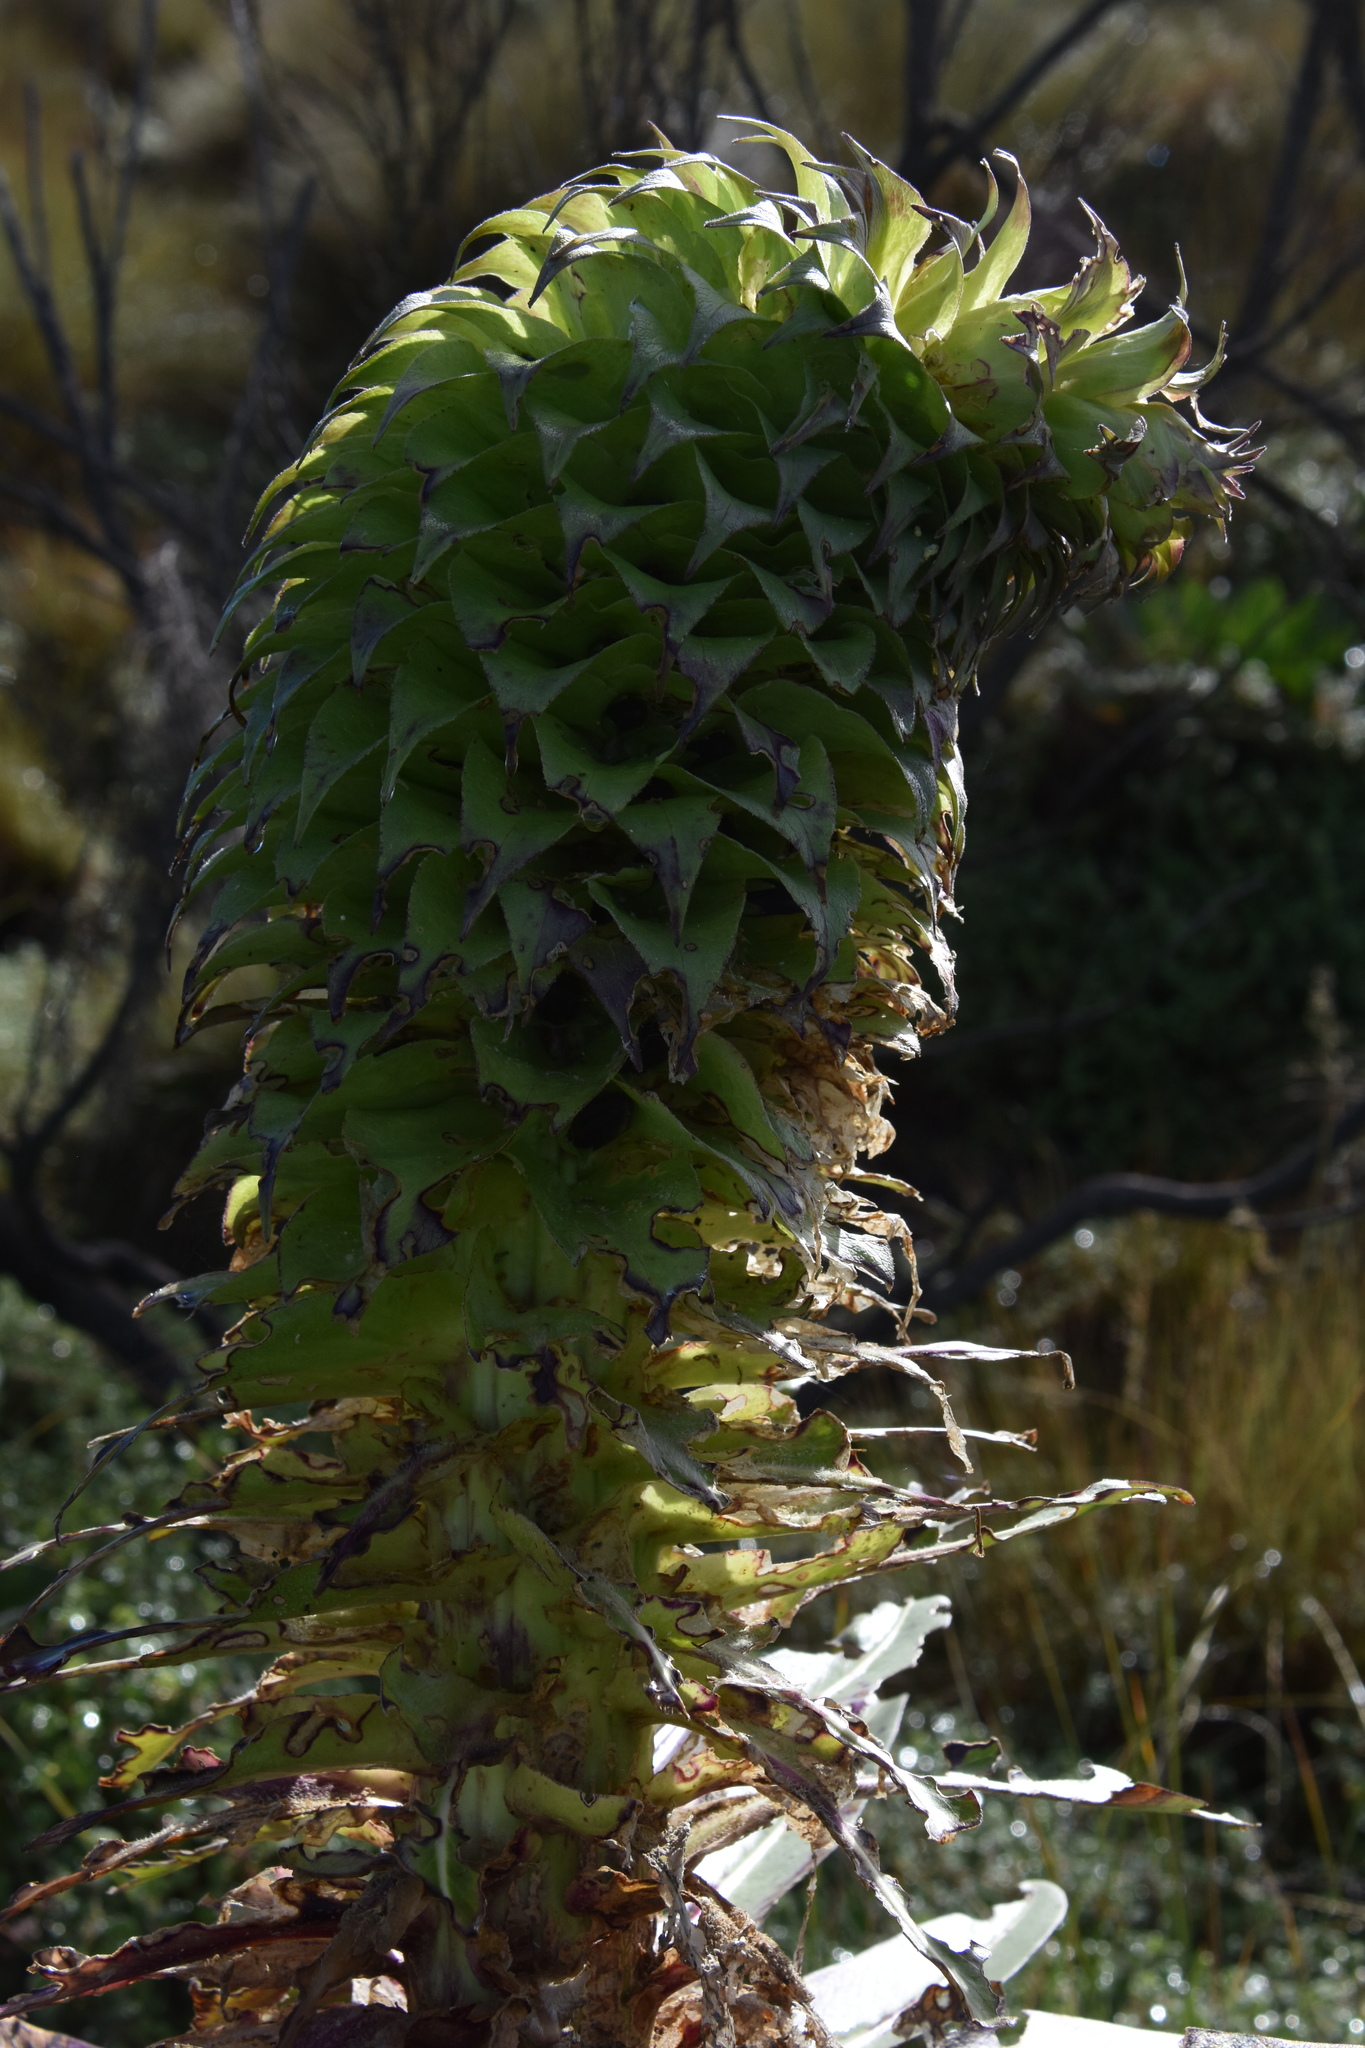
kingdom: Plantae
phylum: Tracheophyta
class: Magnoliopsida
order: Asterales
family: Campanulaceae
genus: Lobelia
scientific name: Lobelia gregoriana
